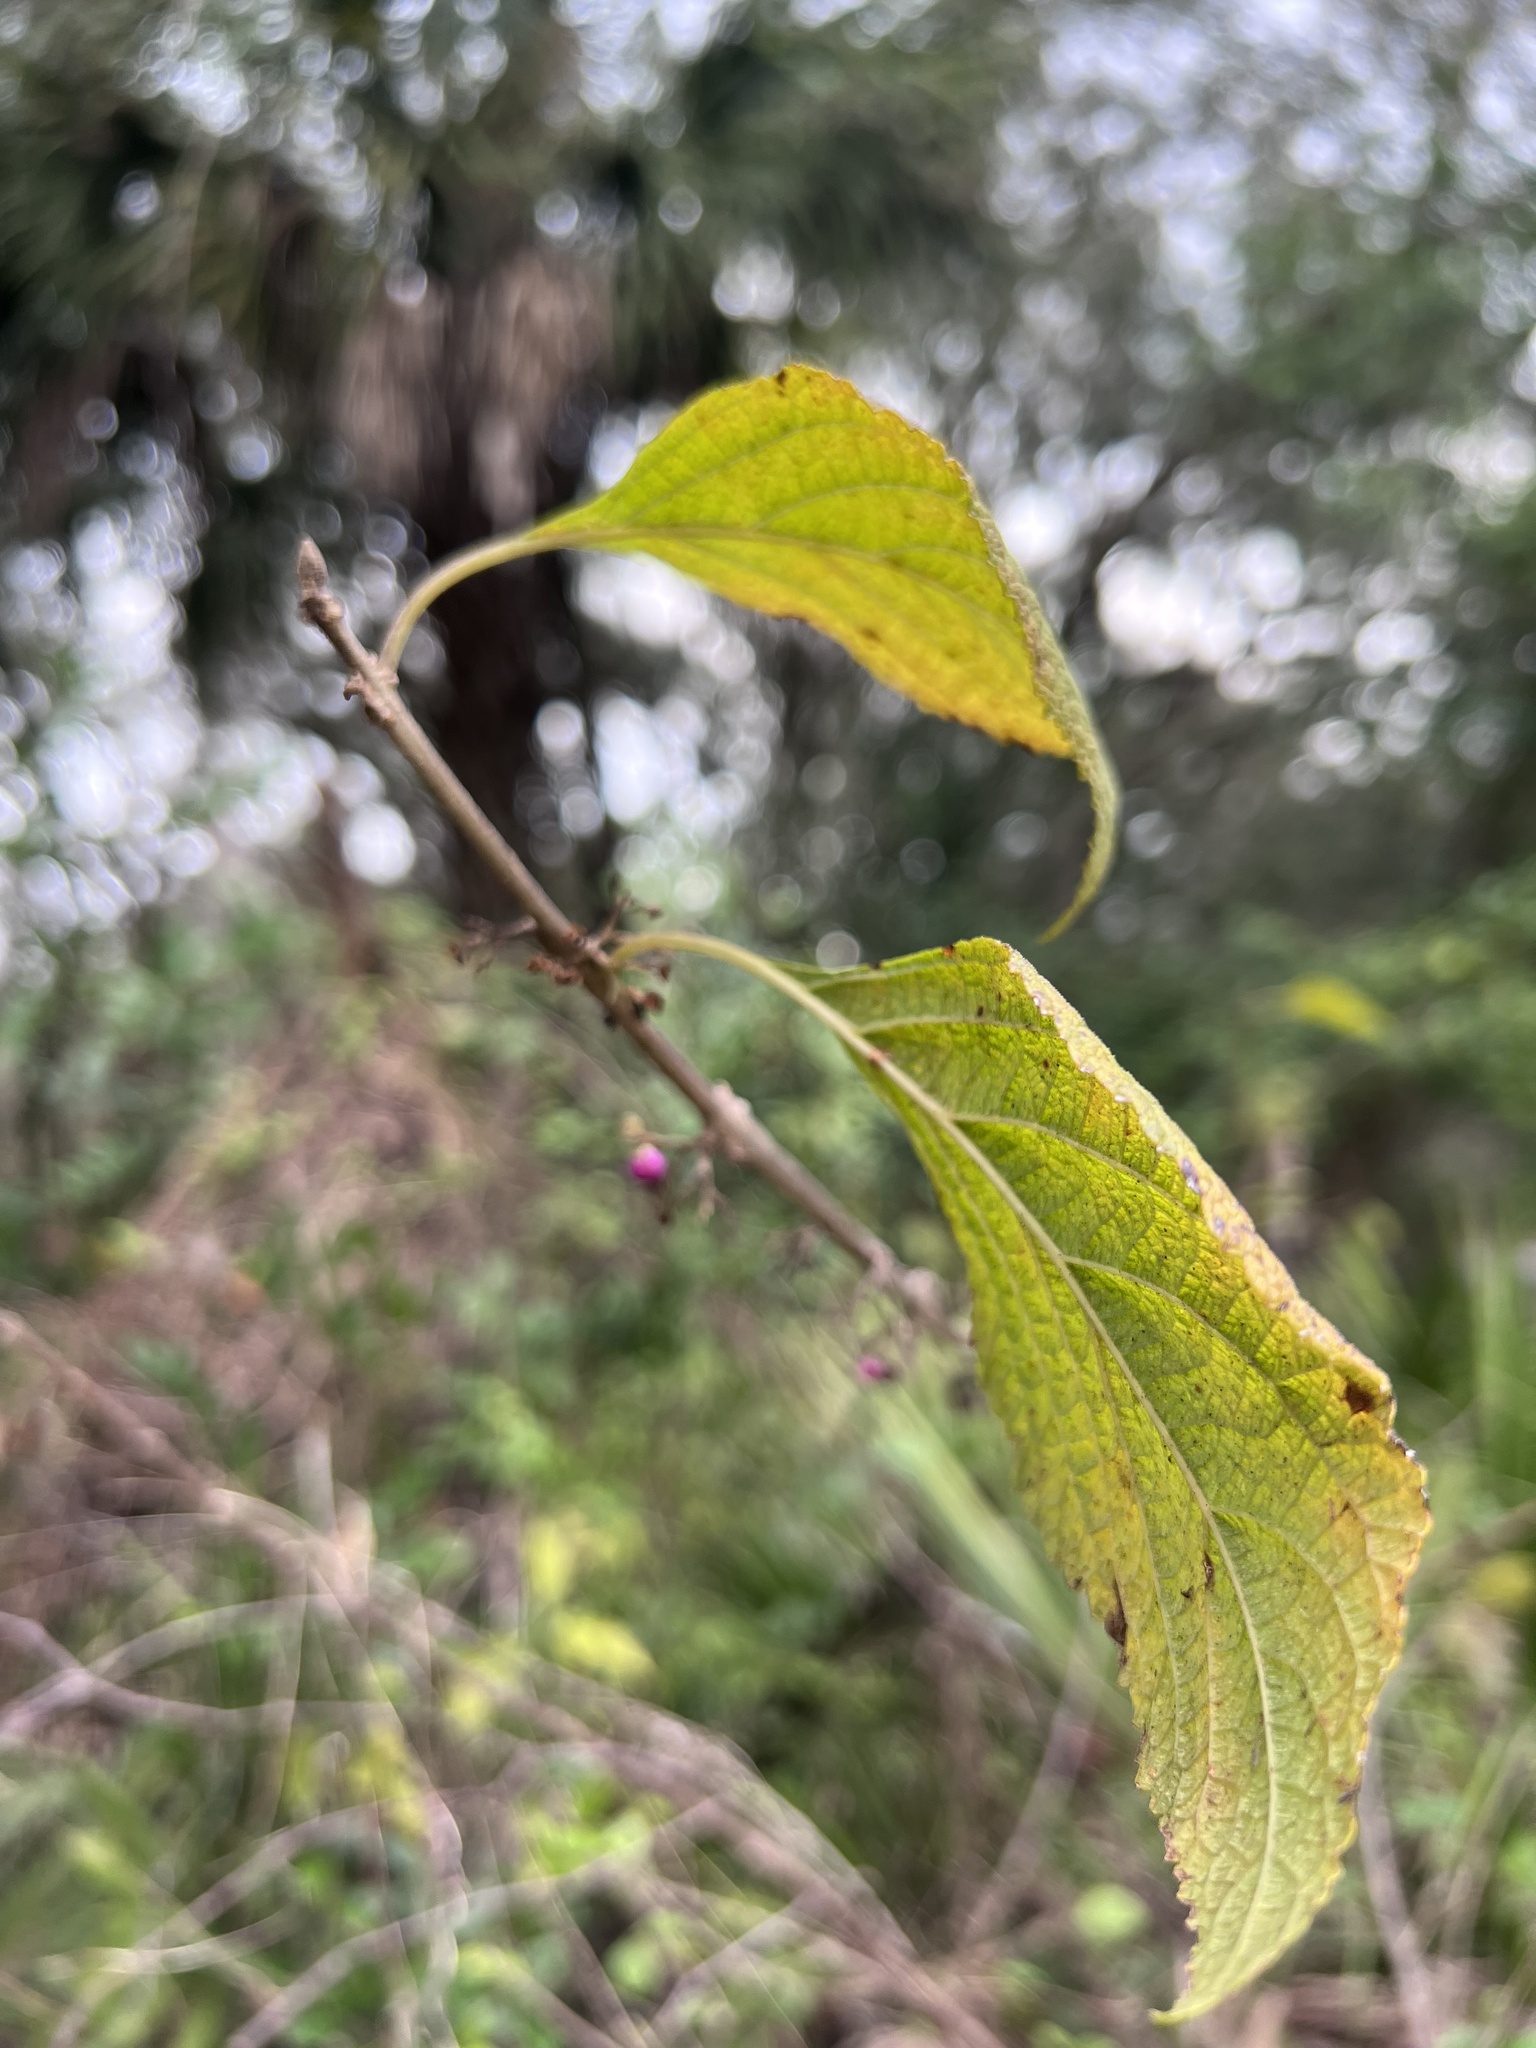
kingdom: Plantae
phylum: Tracheophyta
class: Magnoliopsida
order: Lamiales
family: Lamiaceae
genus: Callicarpa
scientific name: Callicarpa americana
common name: American beautyberry
